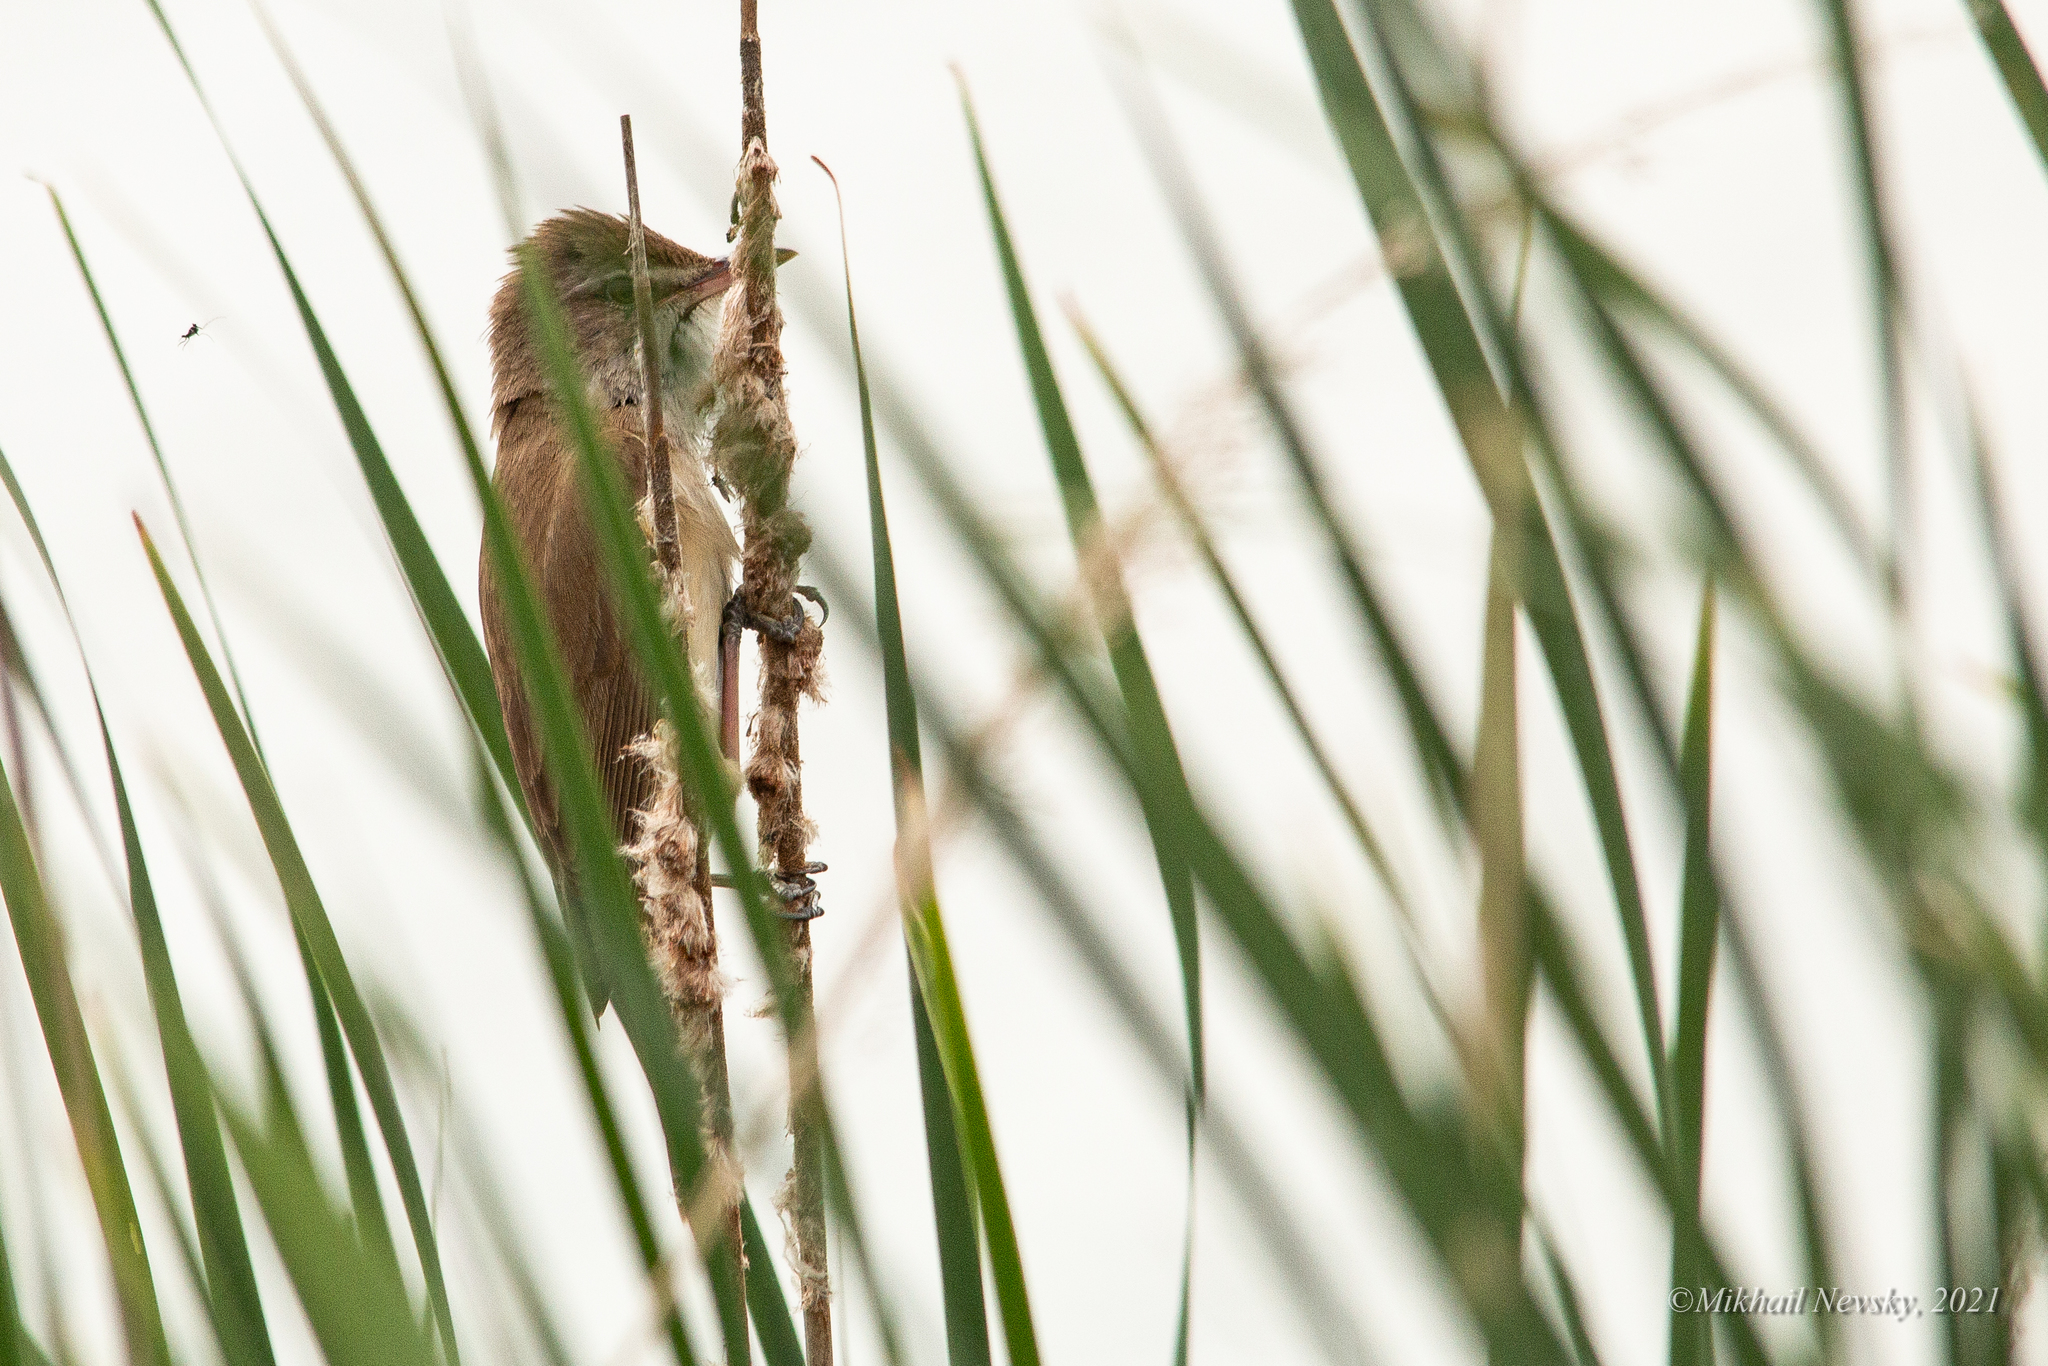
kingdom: Animalia
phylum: Chordata
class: Aves
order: Passeriformes
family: Acrocephalidae
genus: Acrocephalus
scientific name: Acrocephalus arundinaceus
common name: Great reed warbler
